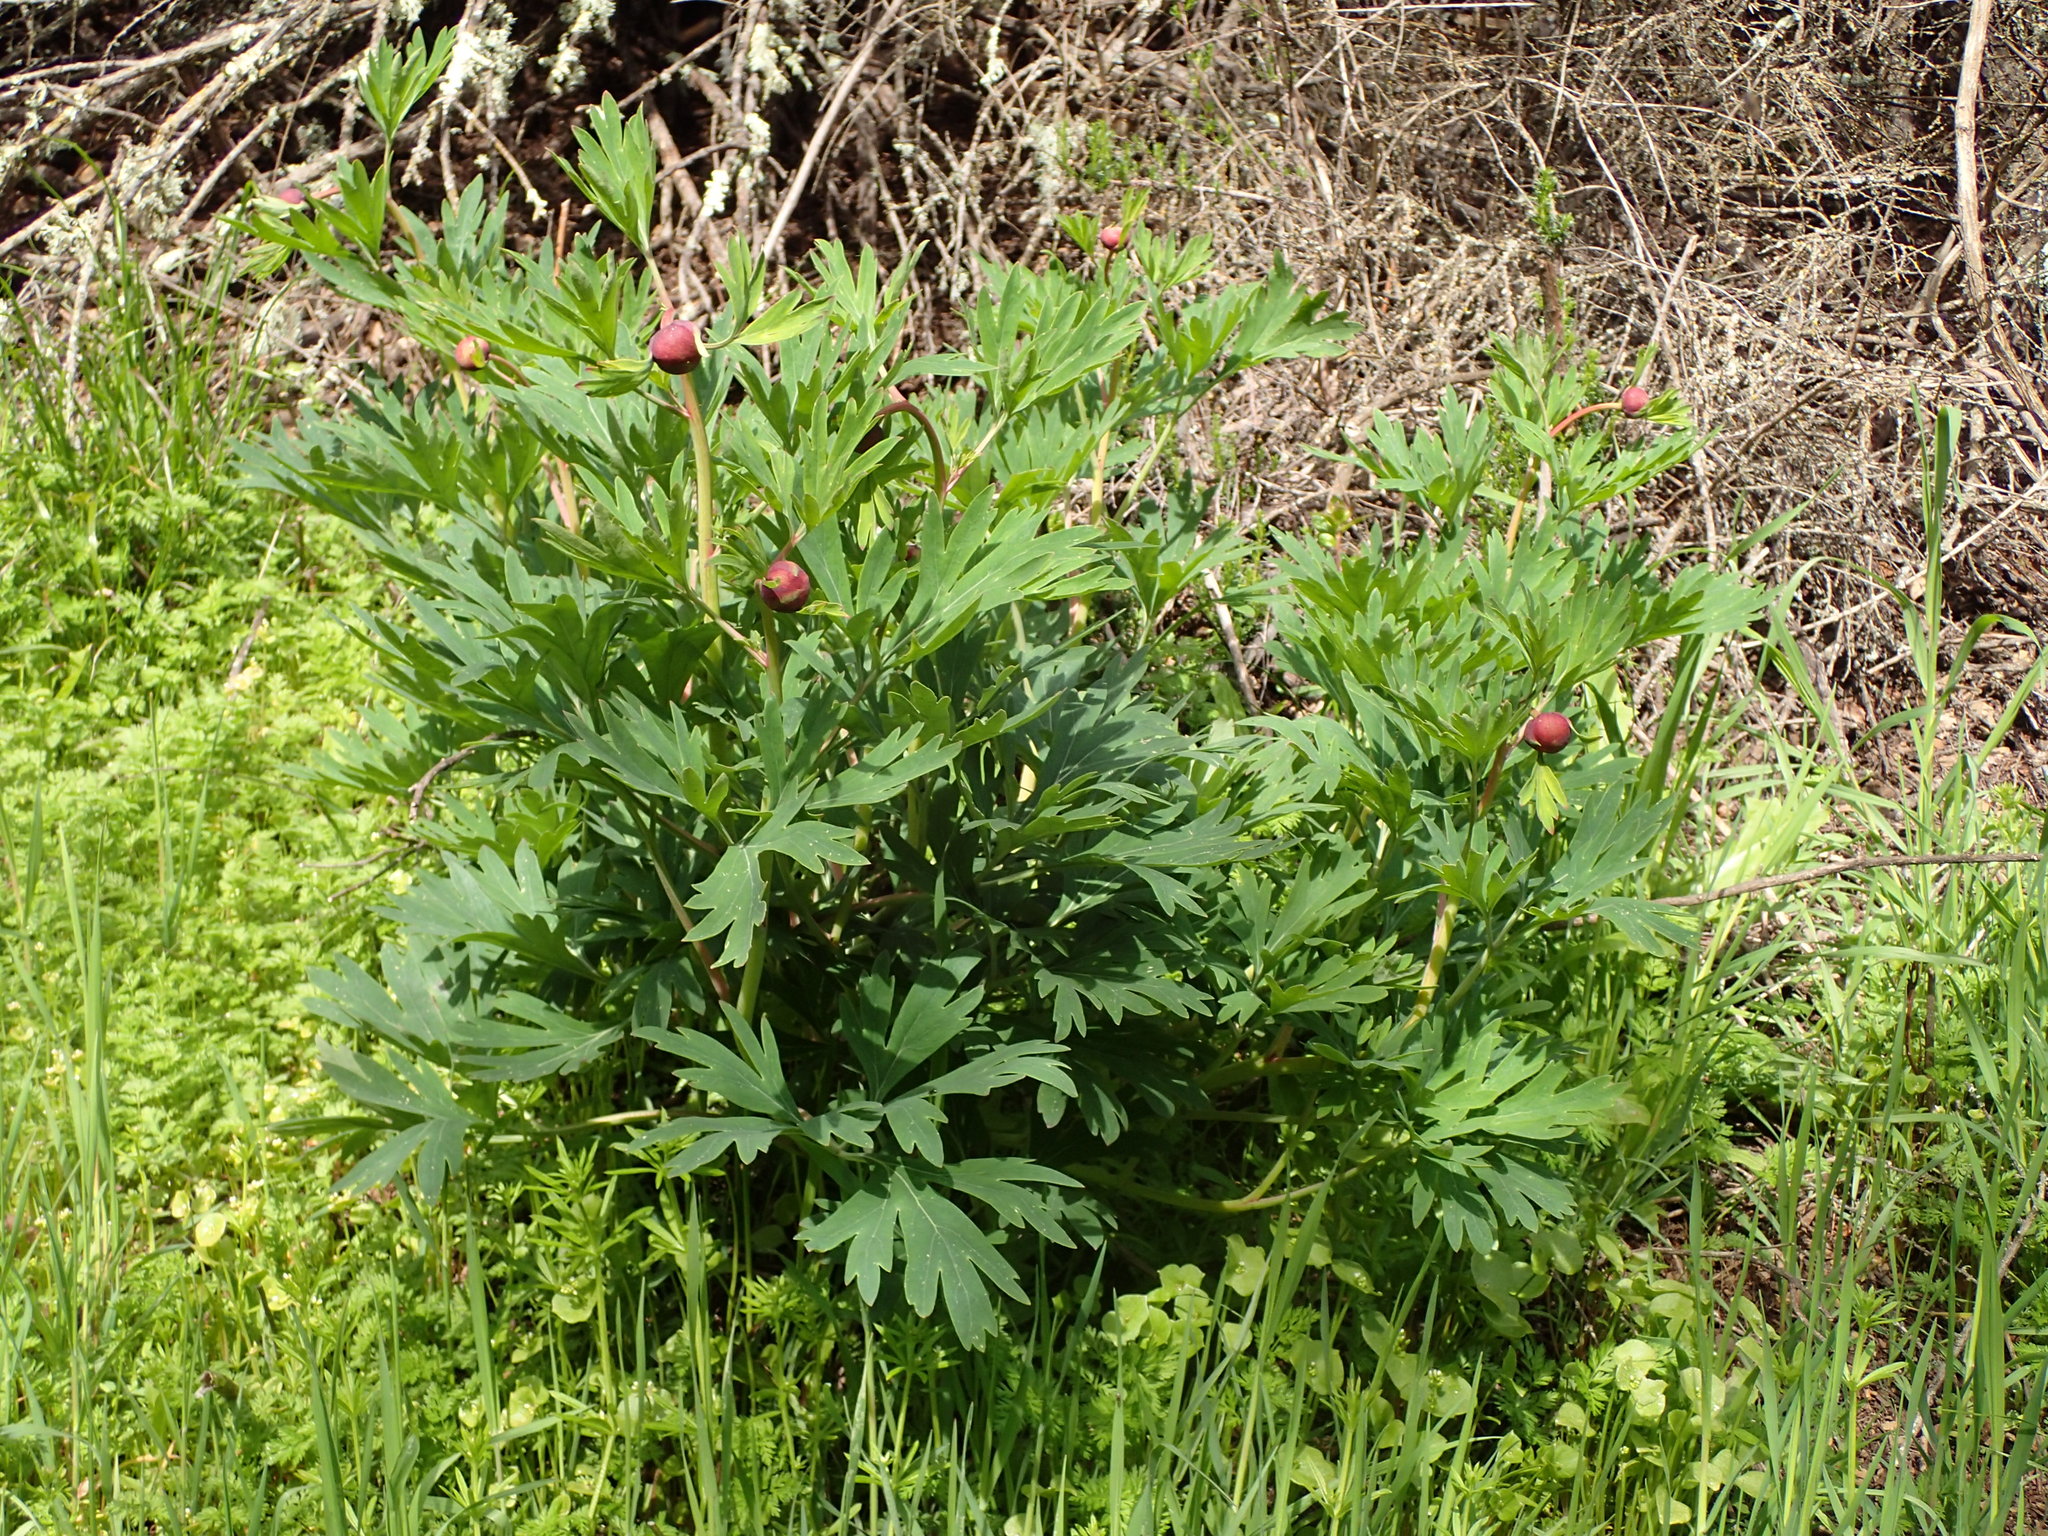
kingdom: Plantae
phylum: Tracheophyta
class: Magnoliopsida
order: Saxifragales
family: Paeoniaceae
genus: Paeonia
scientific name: Paeonia californica
